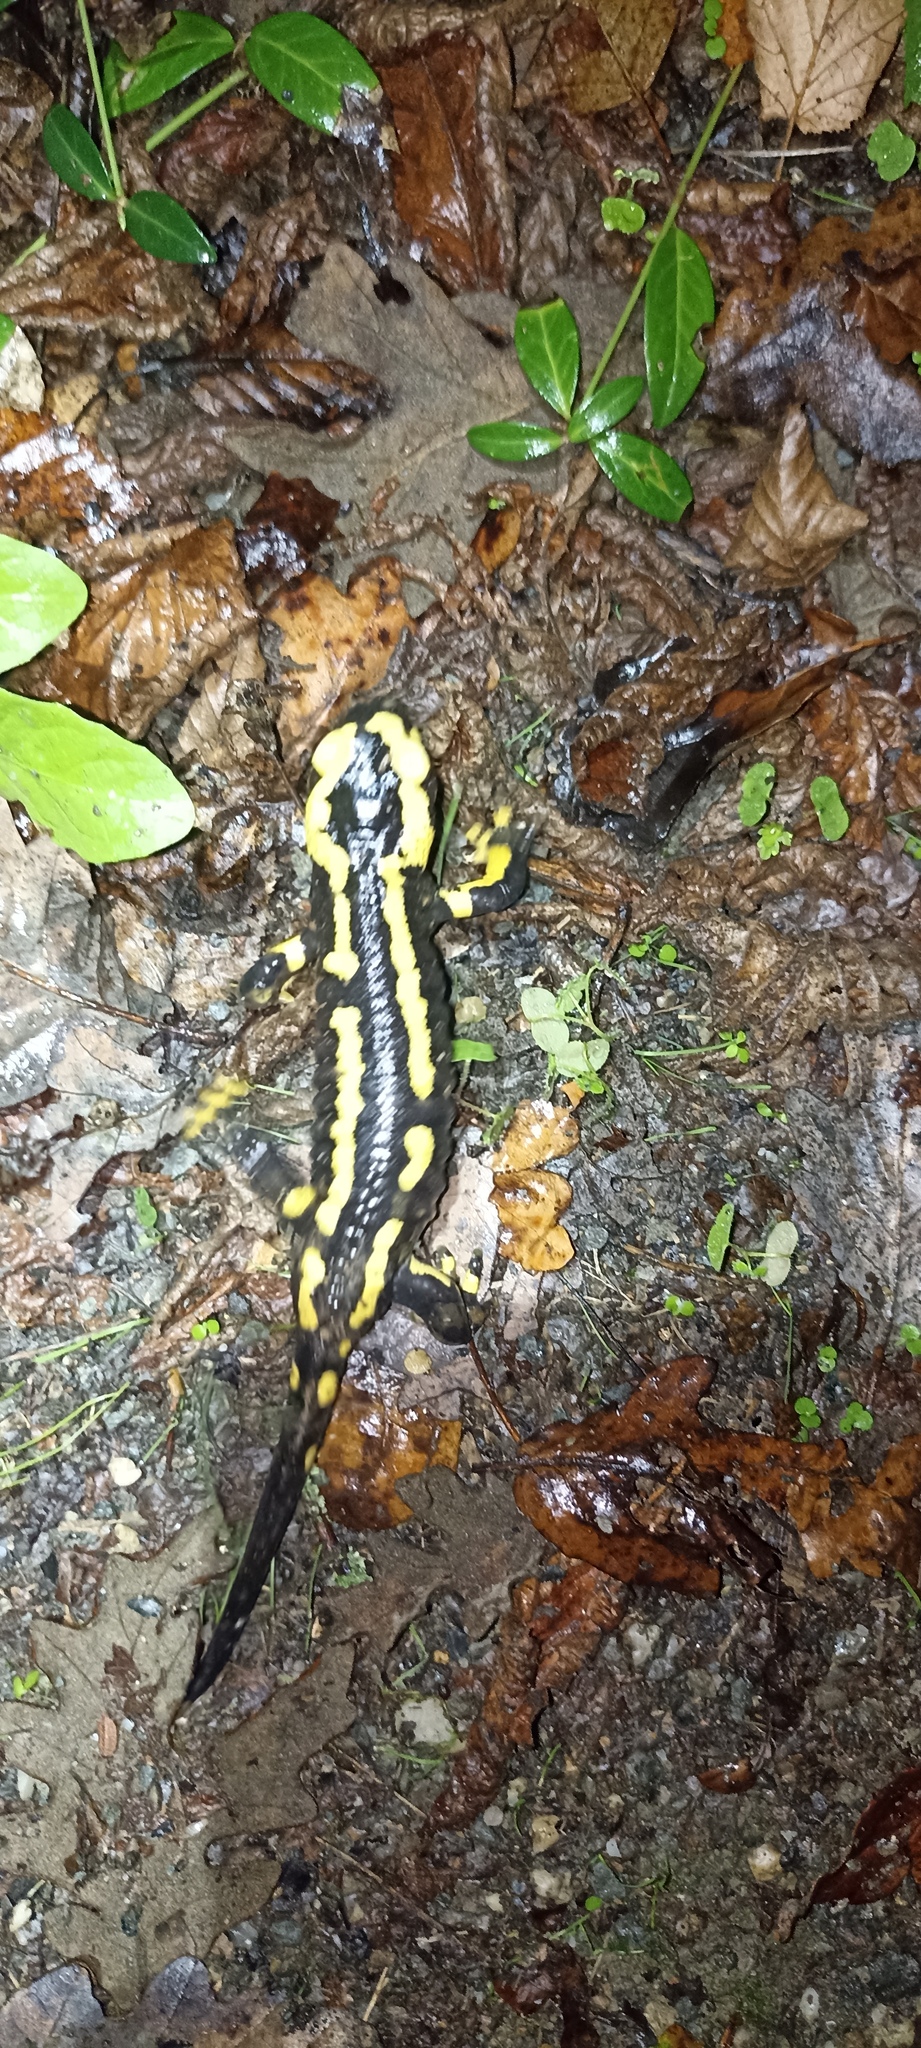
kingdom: Animalia
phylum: Chordata
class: Amphibia
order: Caudata
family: Salamandridae
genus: Salamandra
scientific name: Salamandra salamandra
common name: Fire salamander
